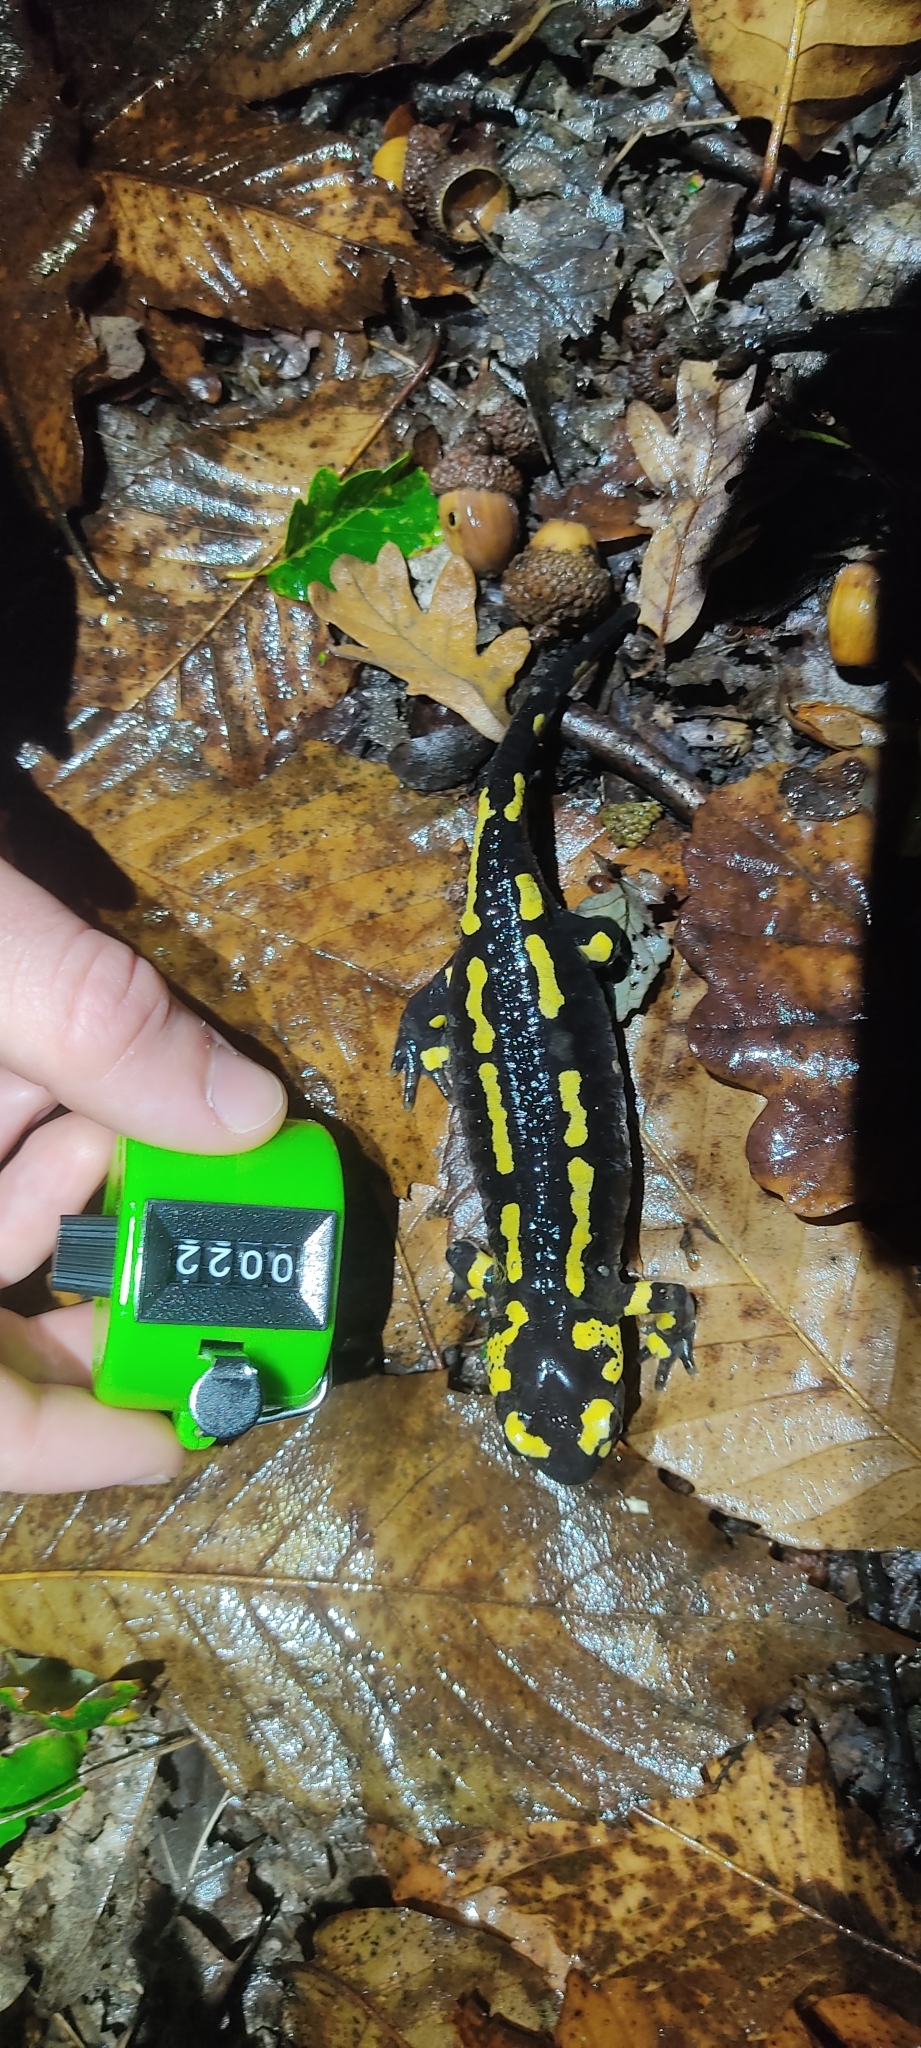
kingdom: Animalia
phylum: Chordata
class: Amphibia
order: Caudata
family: Salamandridae
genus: Salamandra
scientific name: Salamandra salamandra
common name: Fire salamander
